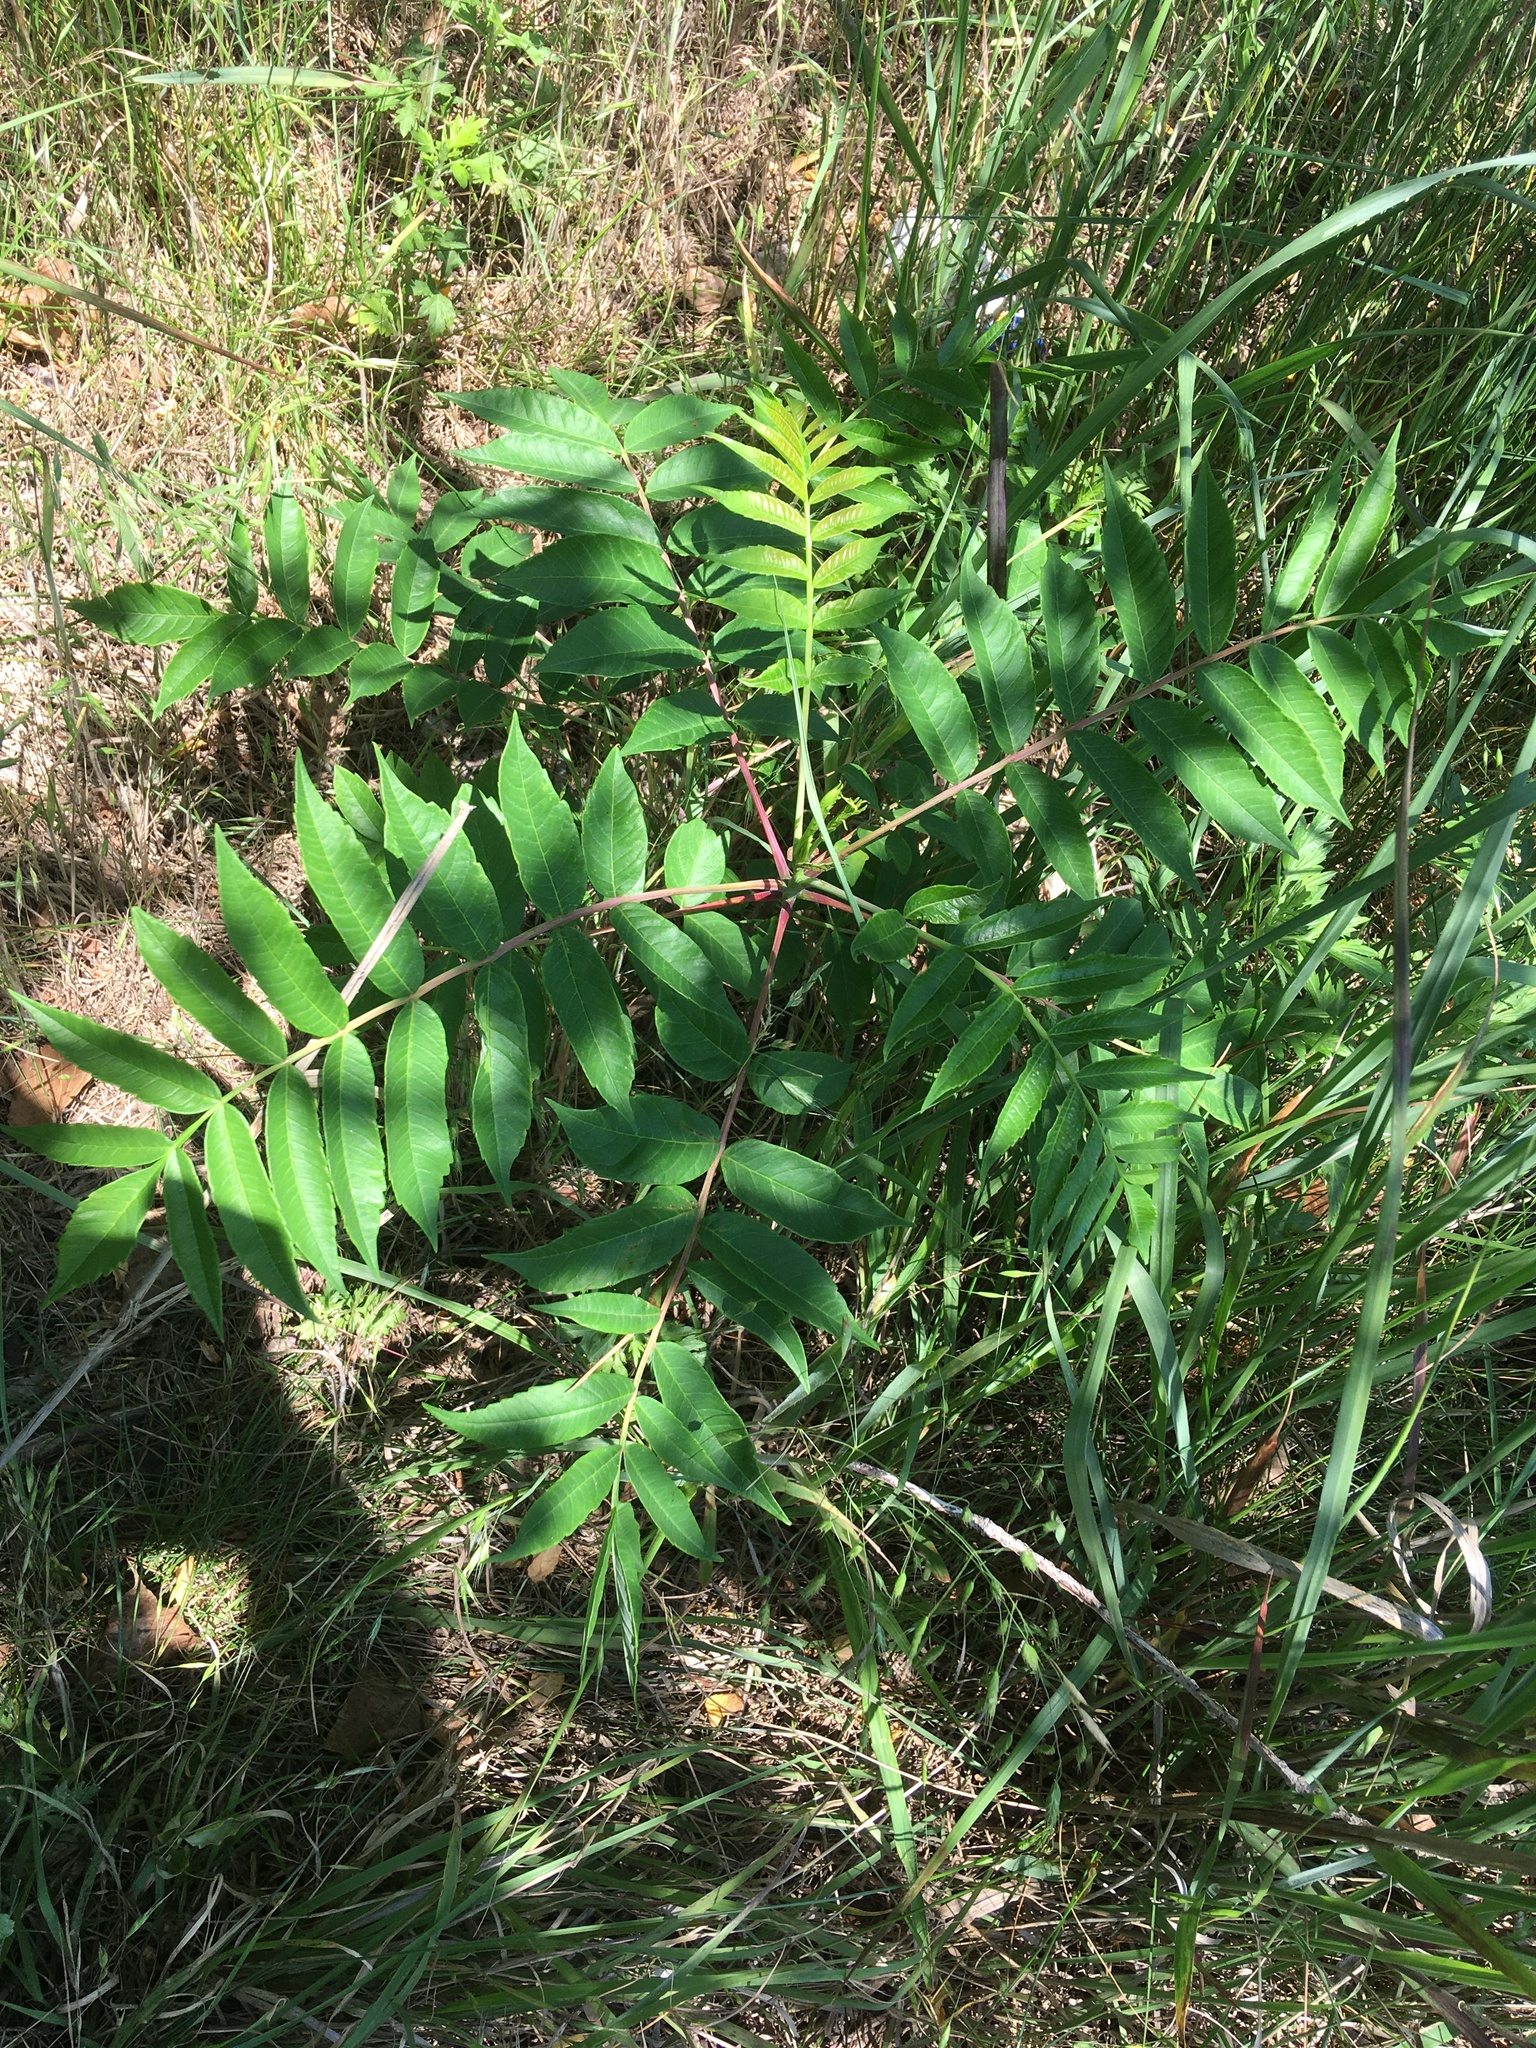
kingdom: Plantae
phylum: Tracheophyta
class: Magnoliopsida
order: Sapindales
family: Anacardiaceae
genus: Rhus
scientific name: Rhus glabra
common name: Scarlet sumac
